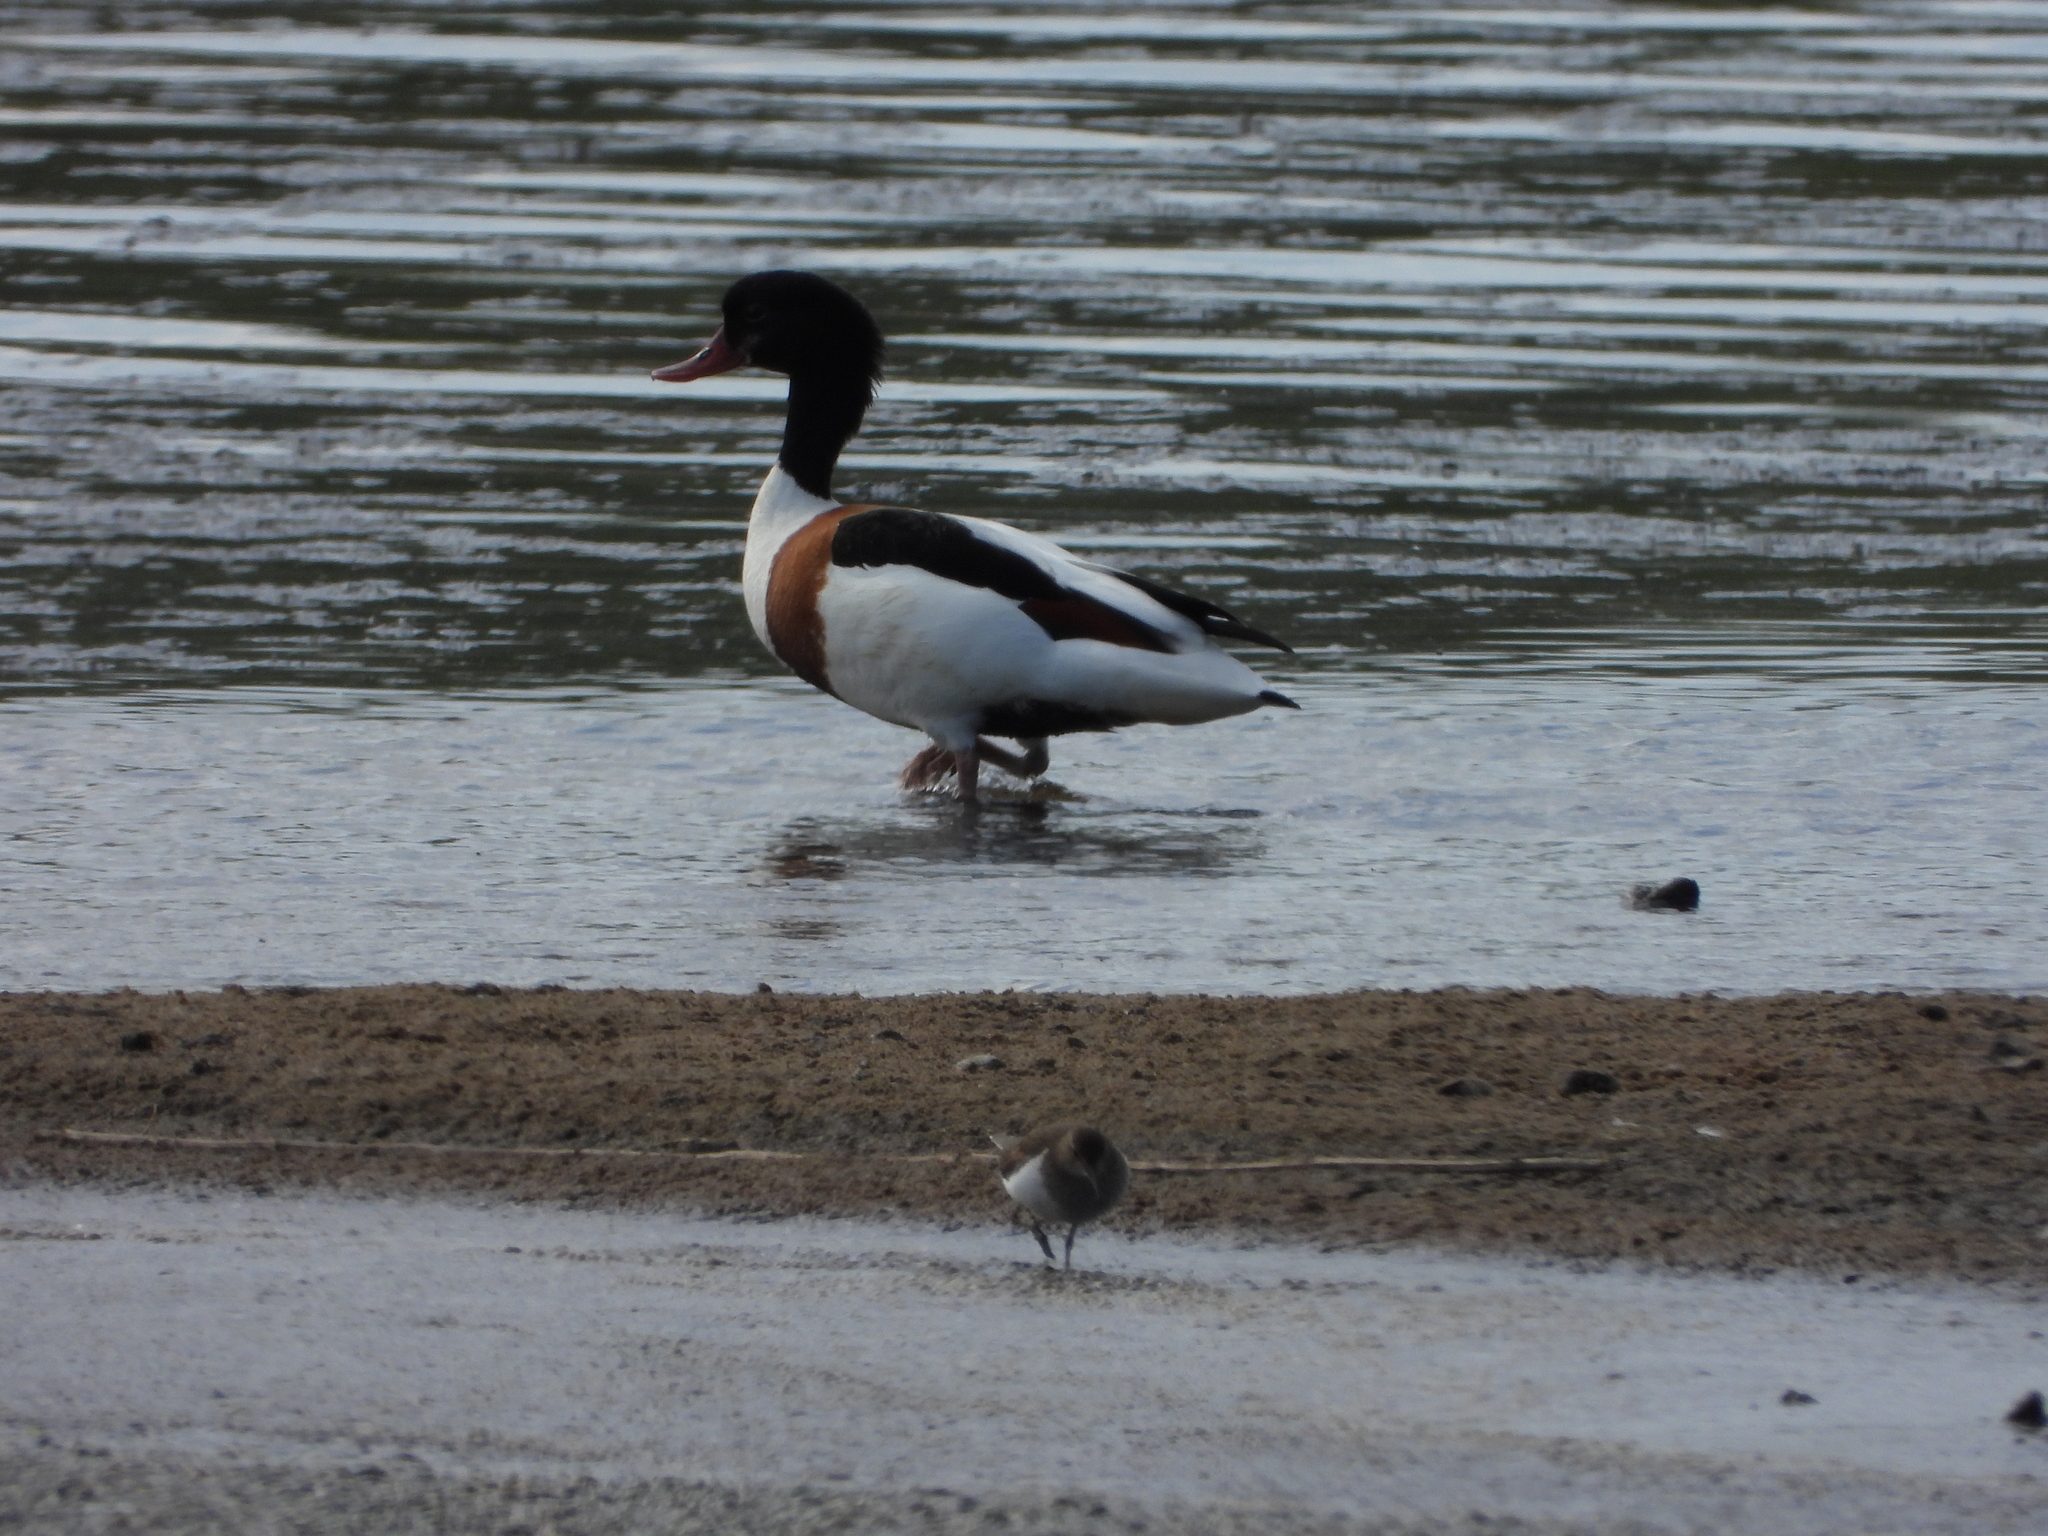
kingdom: Animalia
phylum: Chordata
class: Aves
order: Anseriformes
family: Anatidae
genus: Tadorna
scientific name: Tadorna tadorna
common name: Common shelduck
